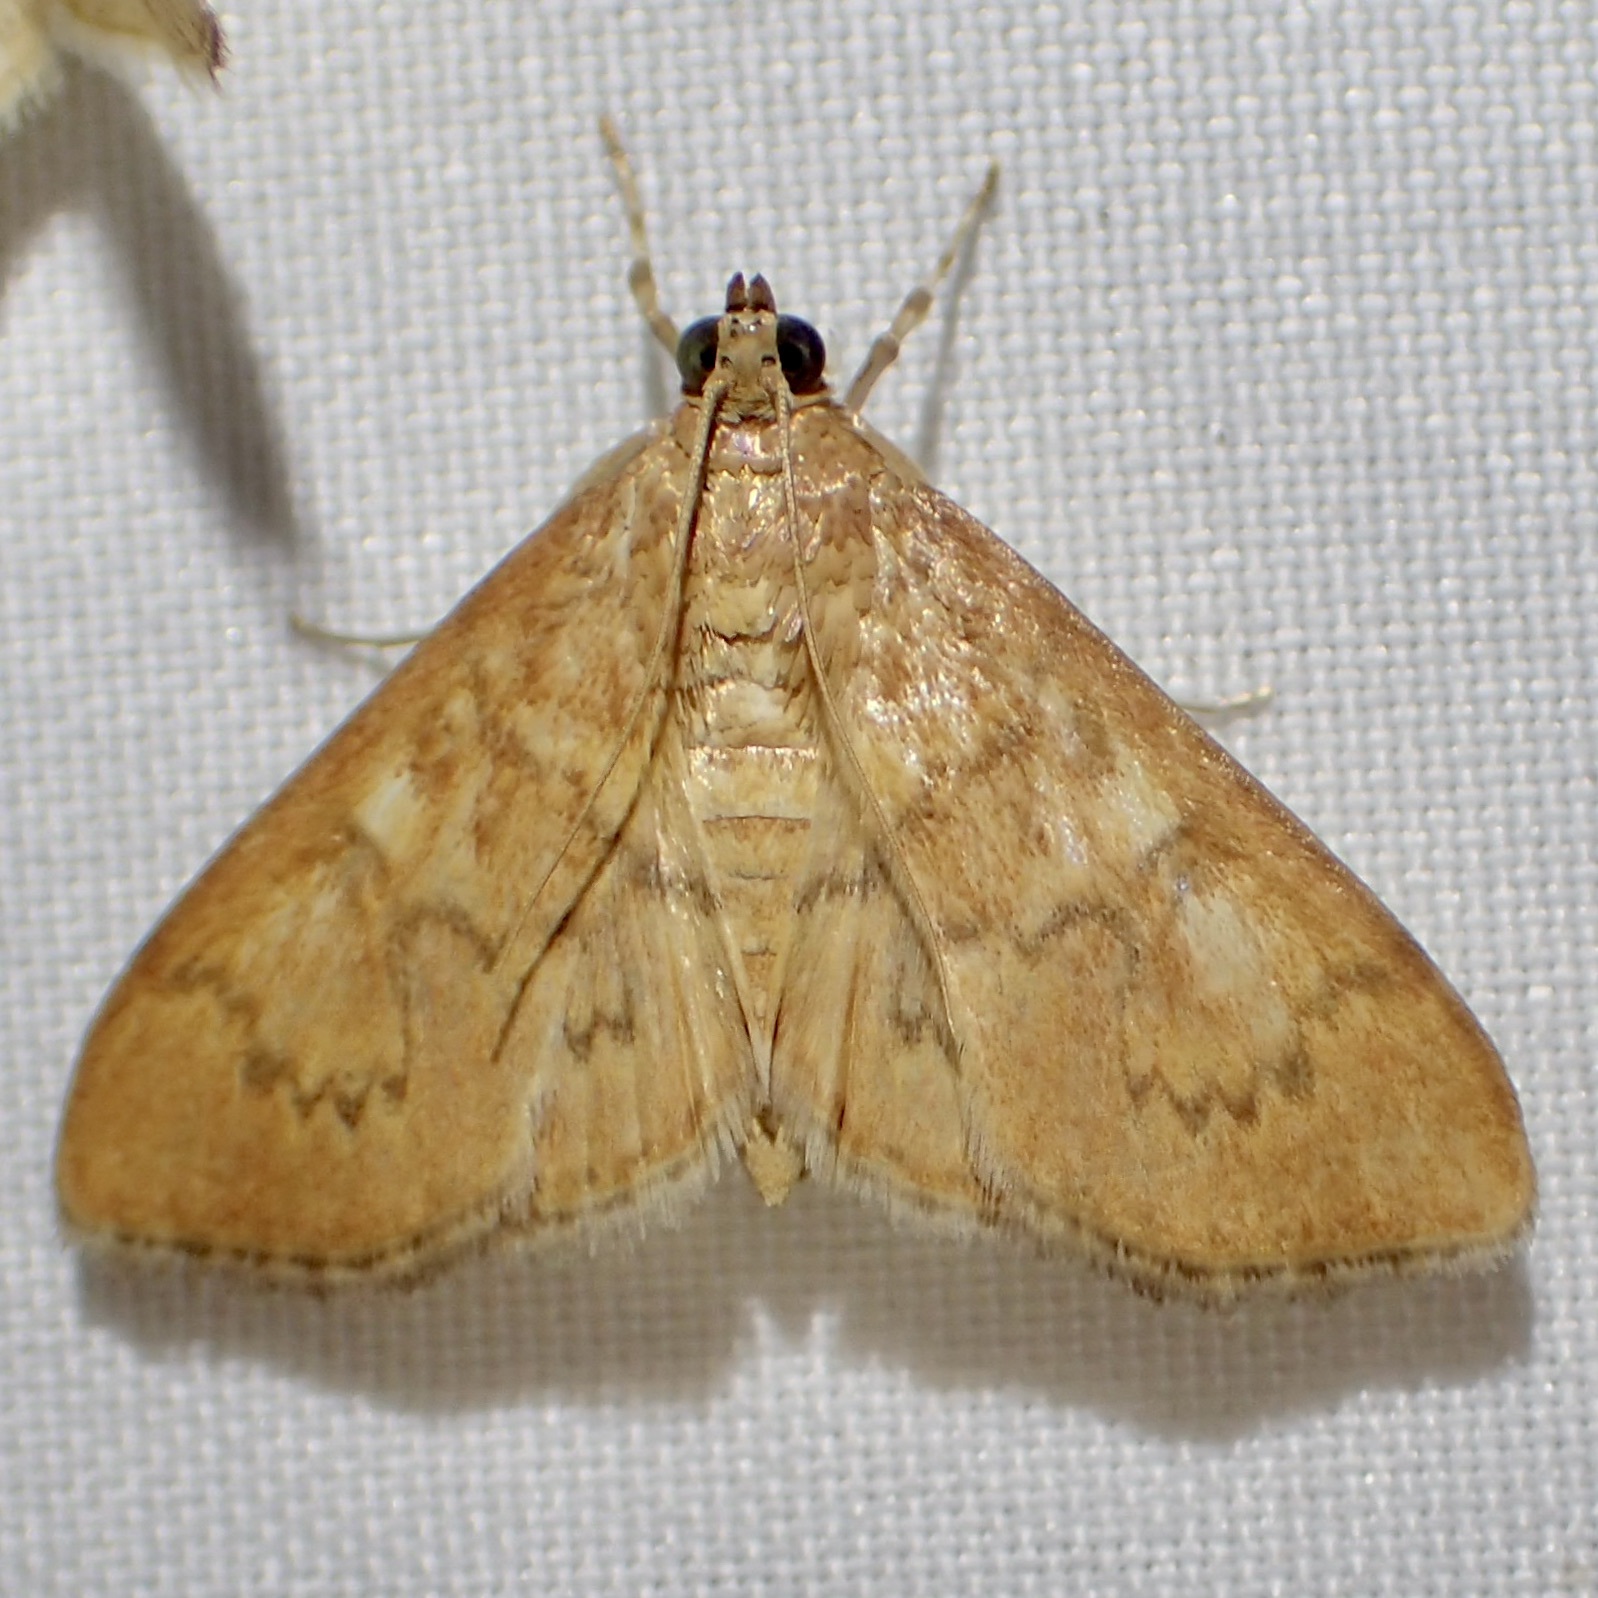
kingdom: Animalia
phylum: Arthropoda
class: Insecta
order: Lepidoptera
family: Crambidae
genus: Pilocrocis
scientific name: Pilocrocis dryalis
